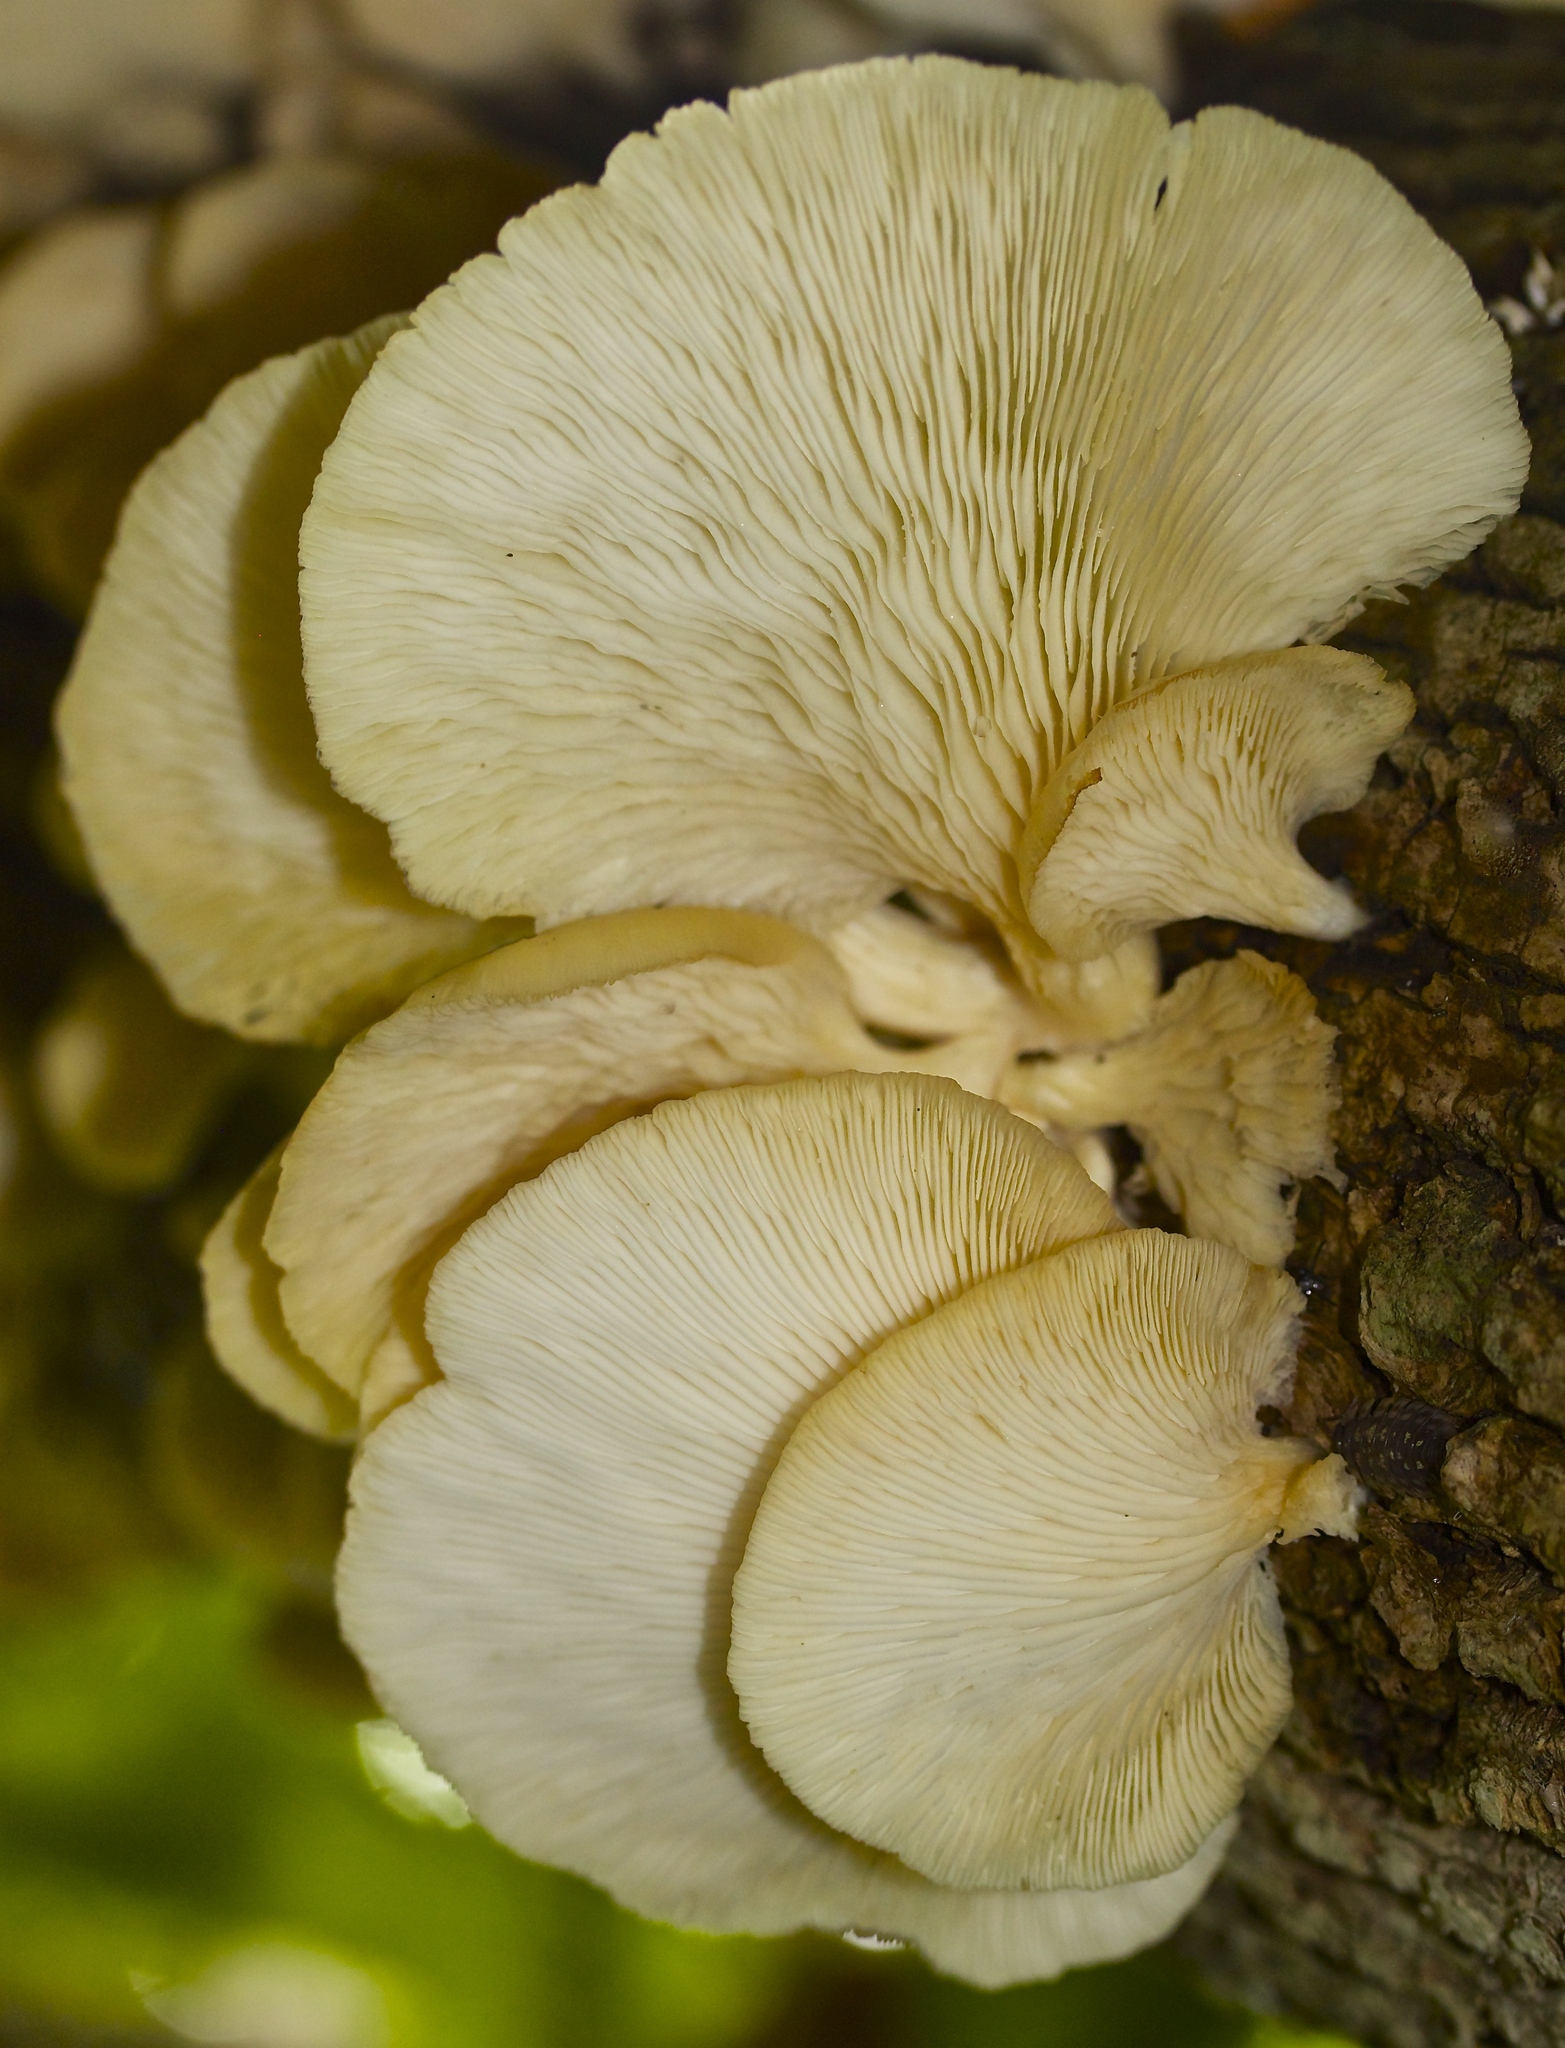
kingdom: Fungi
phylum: Basidiomycota
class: Agaricomycetes
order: Agaricales
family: Pleurotaceae
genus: Pleurotus
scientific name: Pleurotus pulmonarius
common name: Pale oyster
